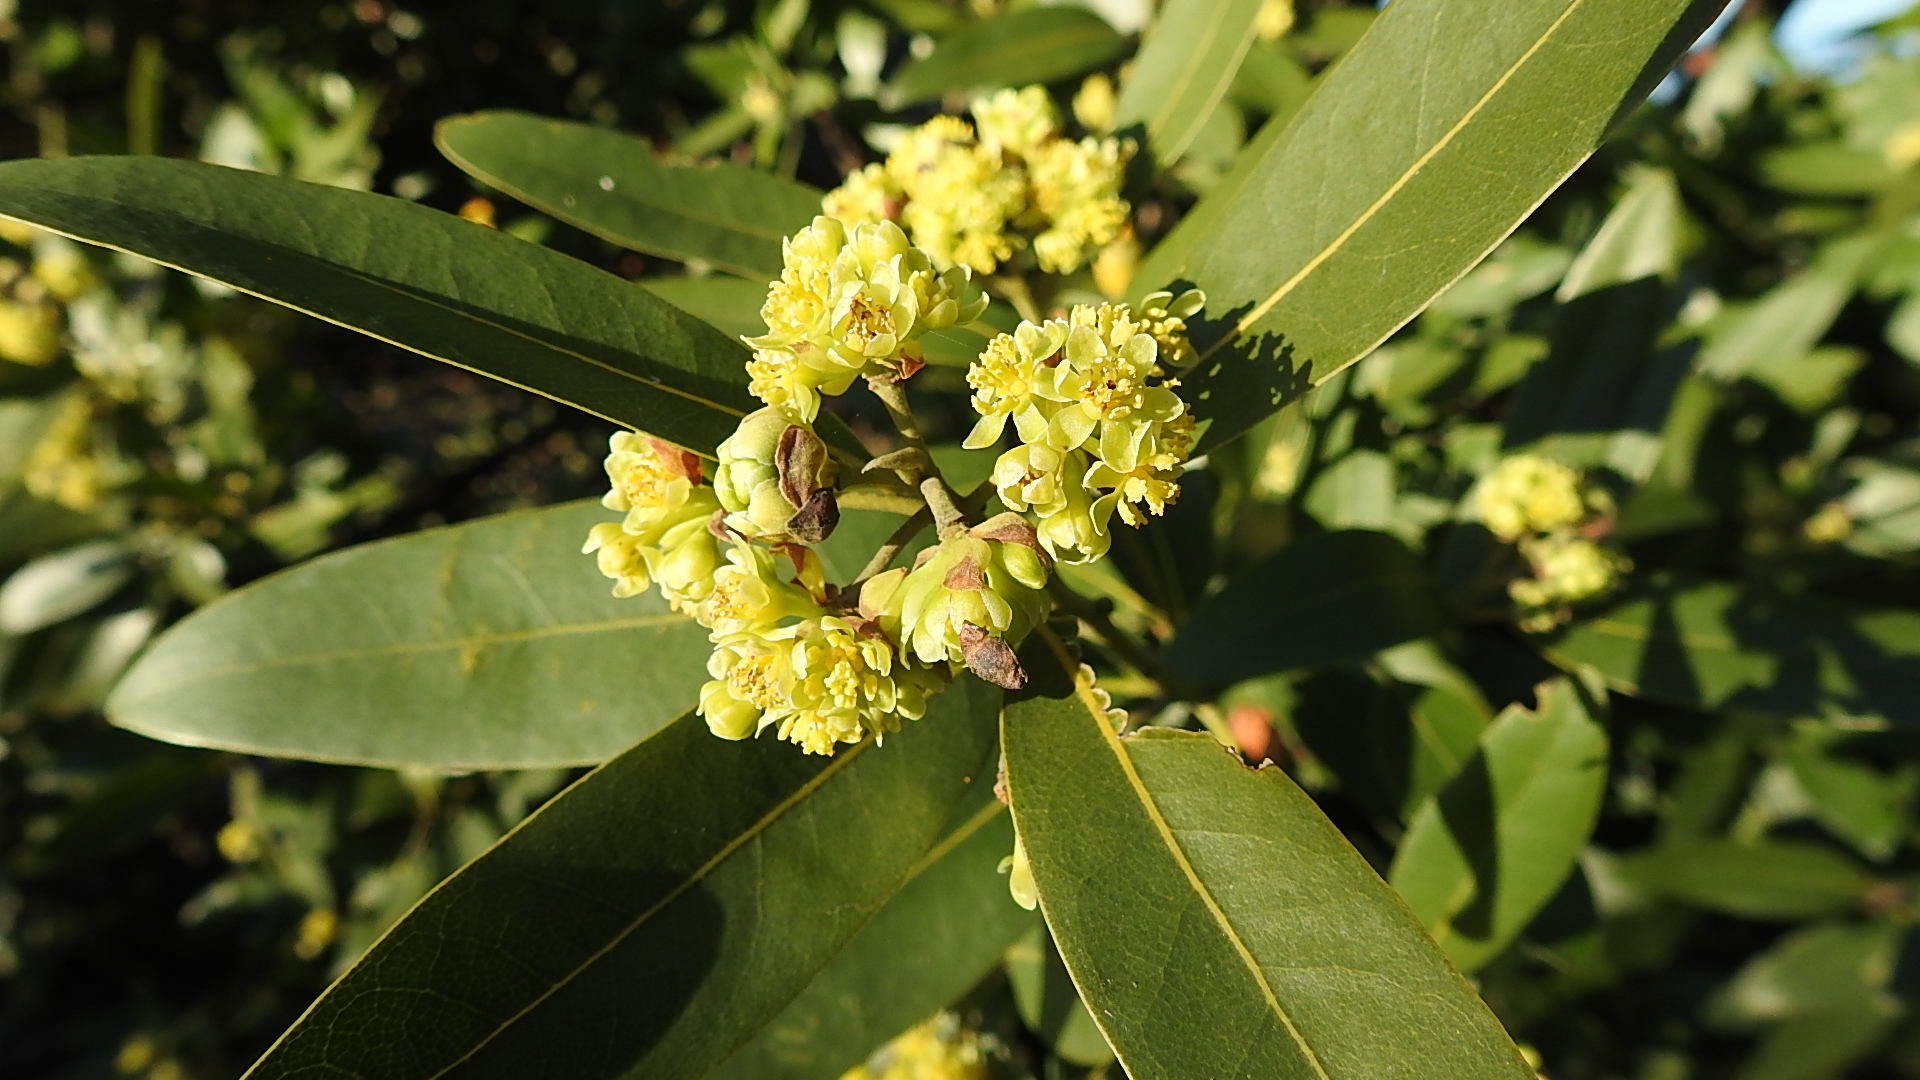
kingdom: Plantae
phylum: Tracheophyta
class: Magnoliopsida
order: Laurales
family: Lauraceae
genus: Umbellularia
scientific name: Umbellularia californica
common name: California bay
